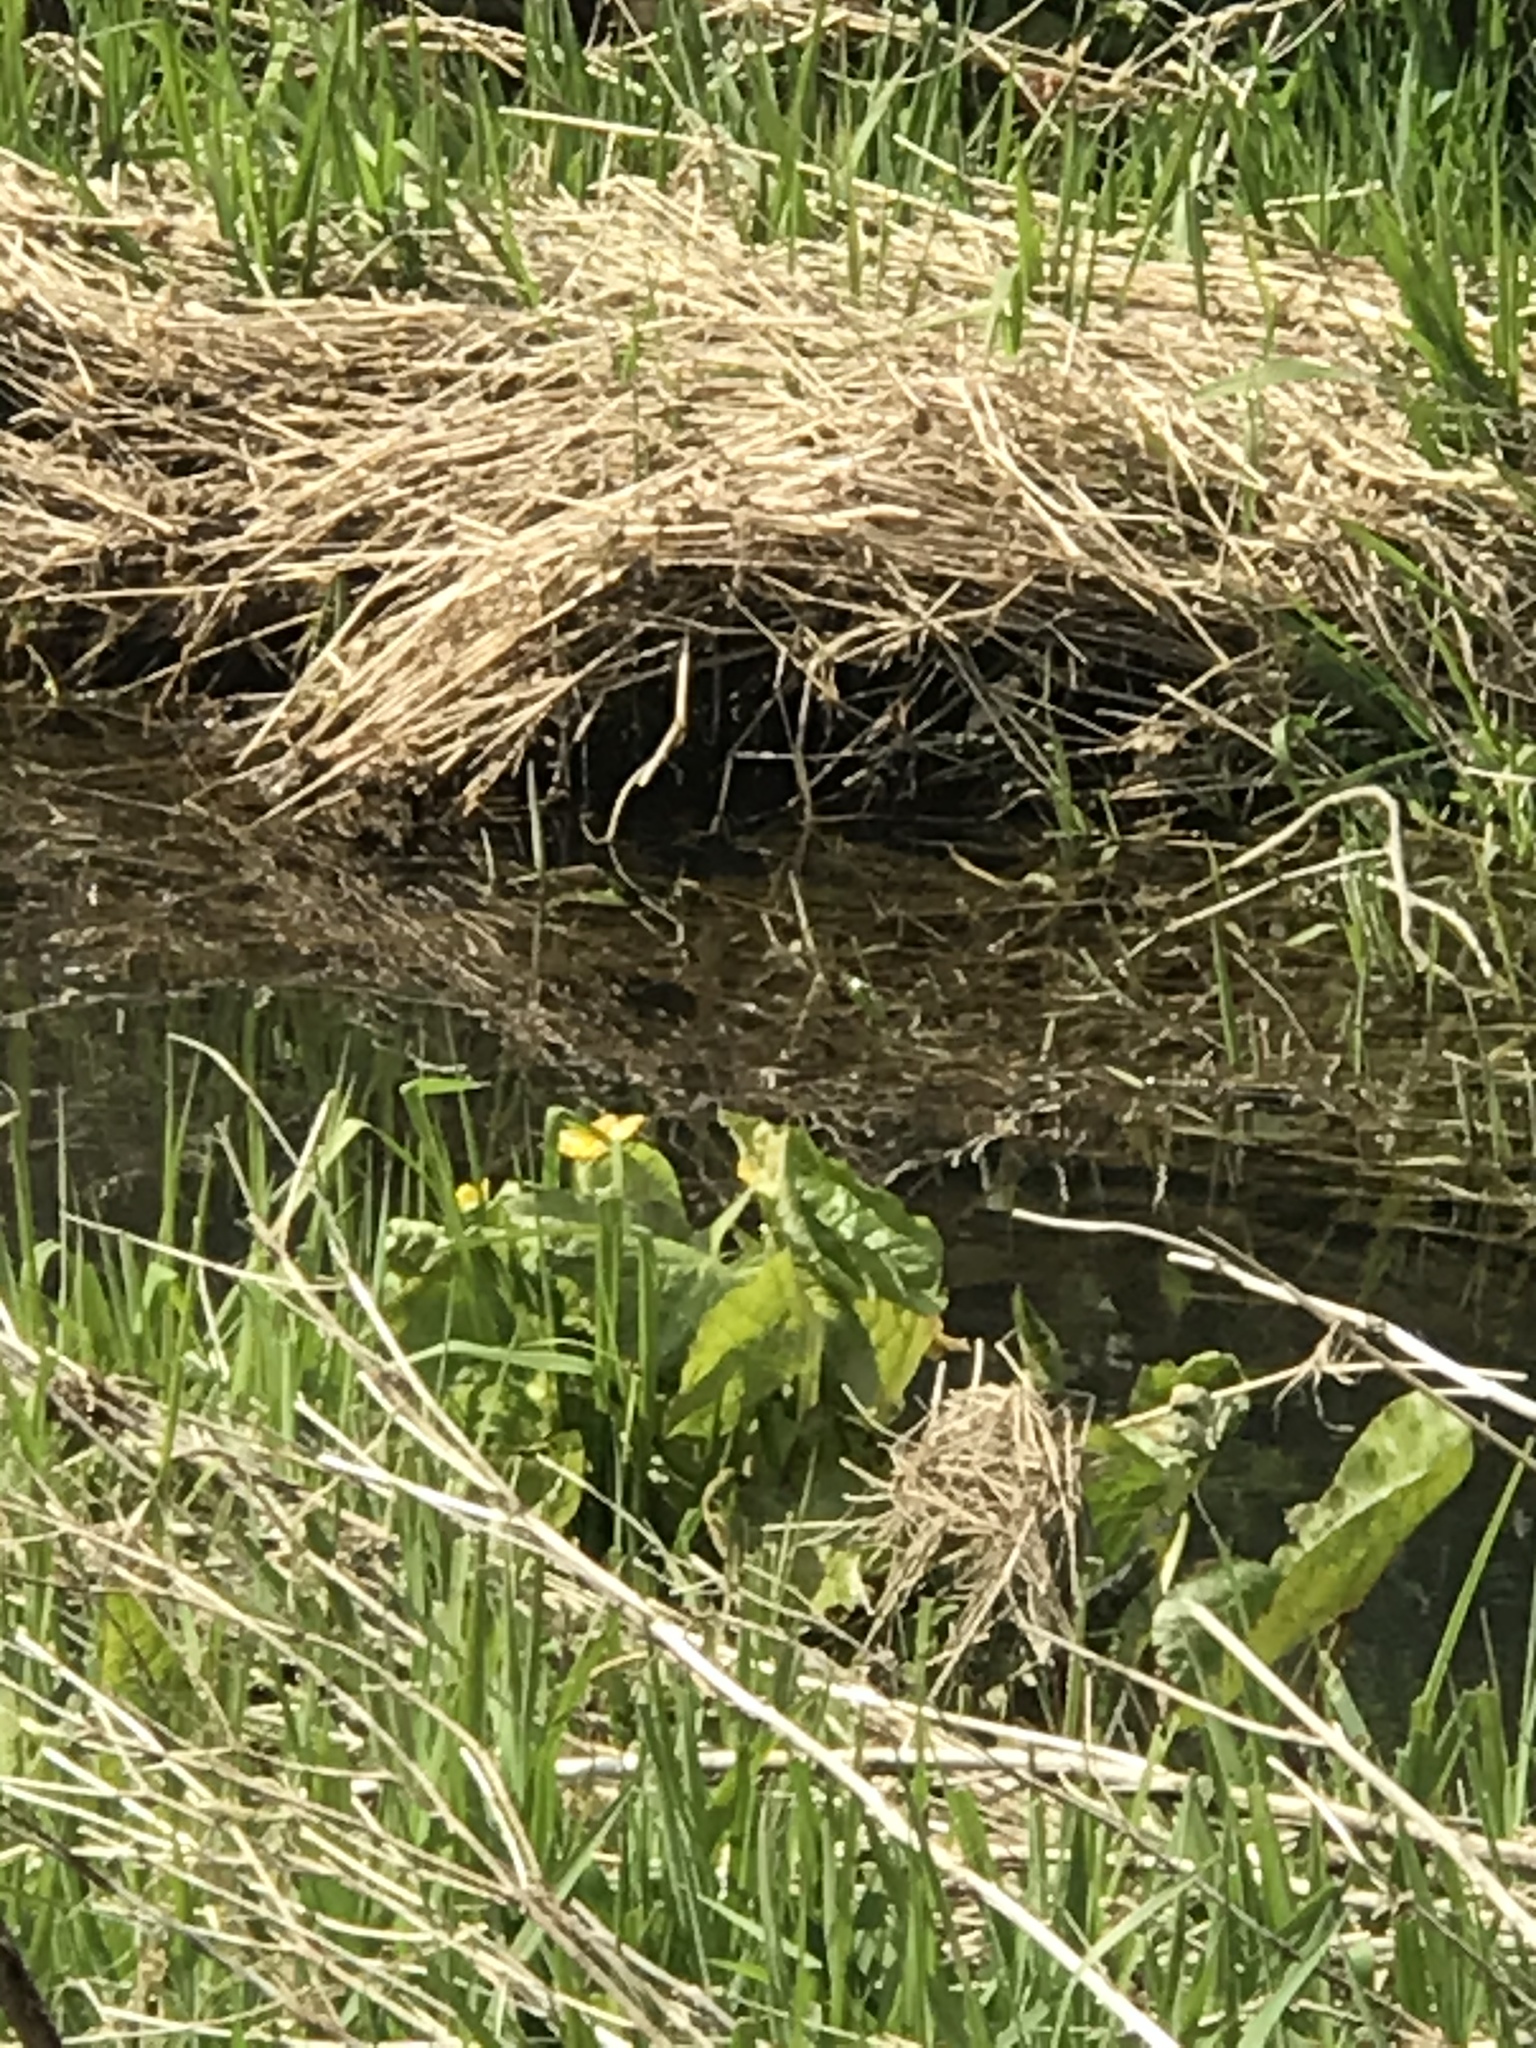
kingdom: Plantae
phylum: Tracheophyta
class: Magnoliopsida
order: Ranunculales
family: Ranunculaceae
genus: Caltha
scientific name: Caltha palustris
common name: Marsh marigold
